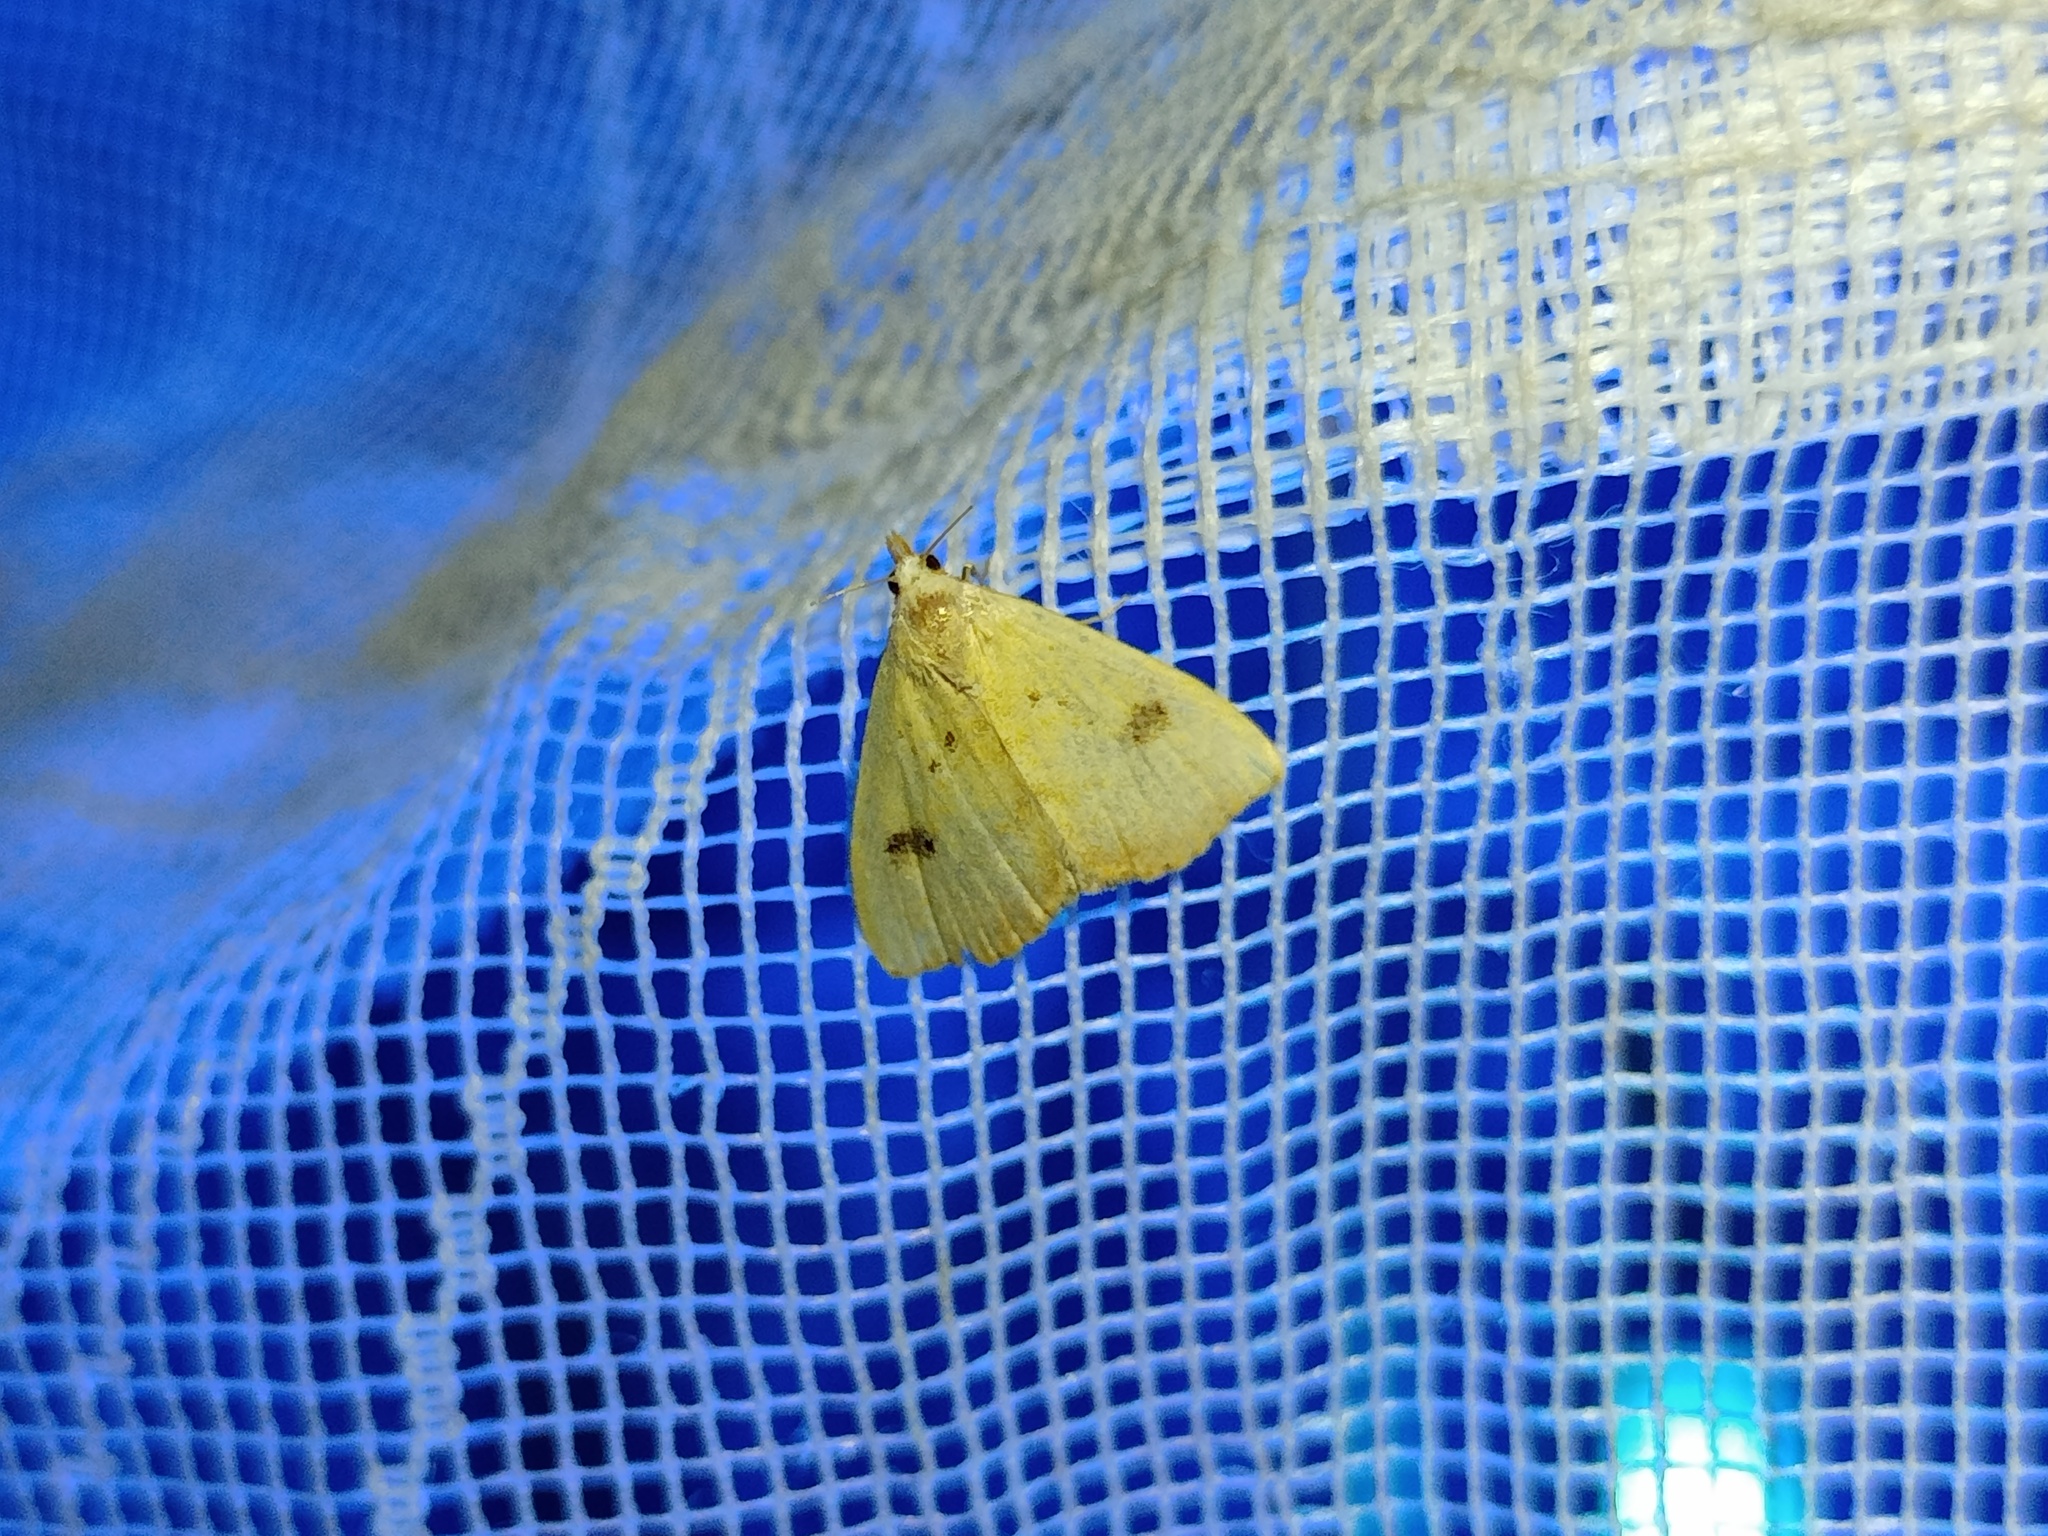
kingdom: Animalia
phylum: Arthropoda
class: Insecta
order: Lepidoptera
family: Erebidae
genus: Rivula
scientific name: Rivula sericealis
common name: Straw dot
